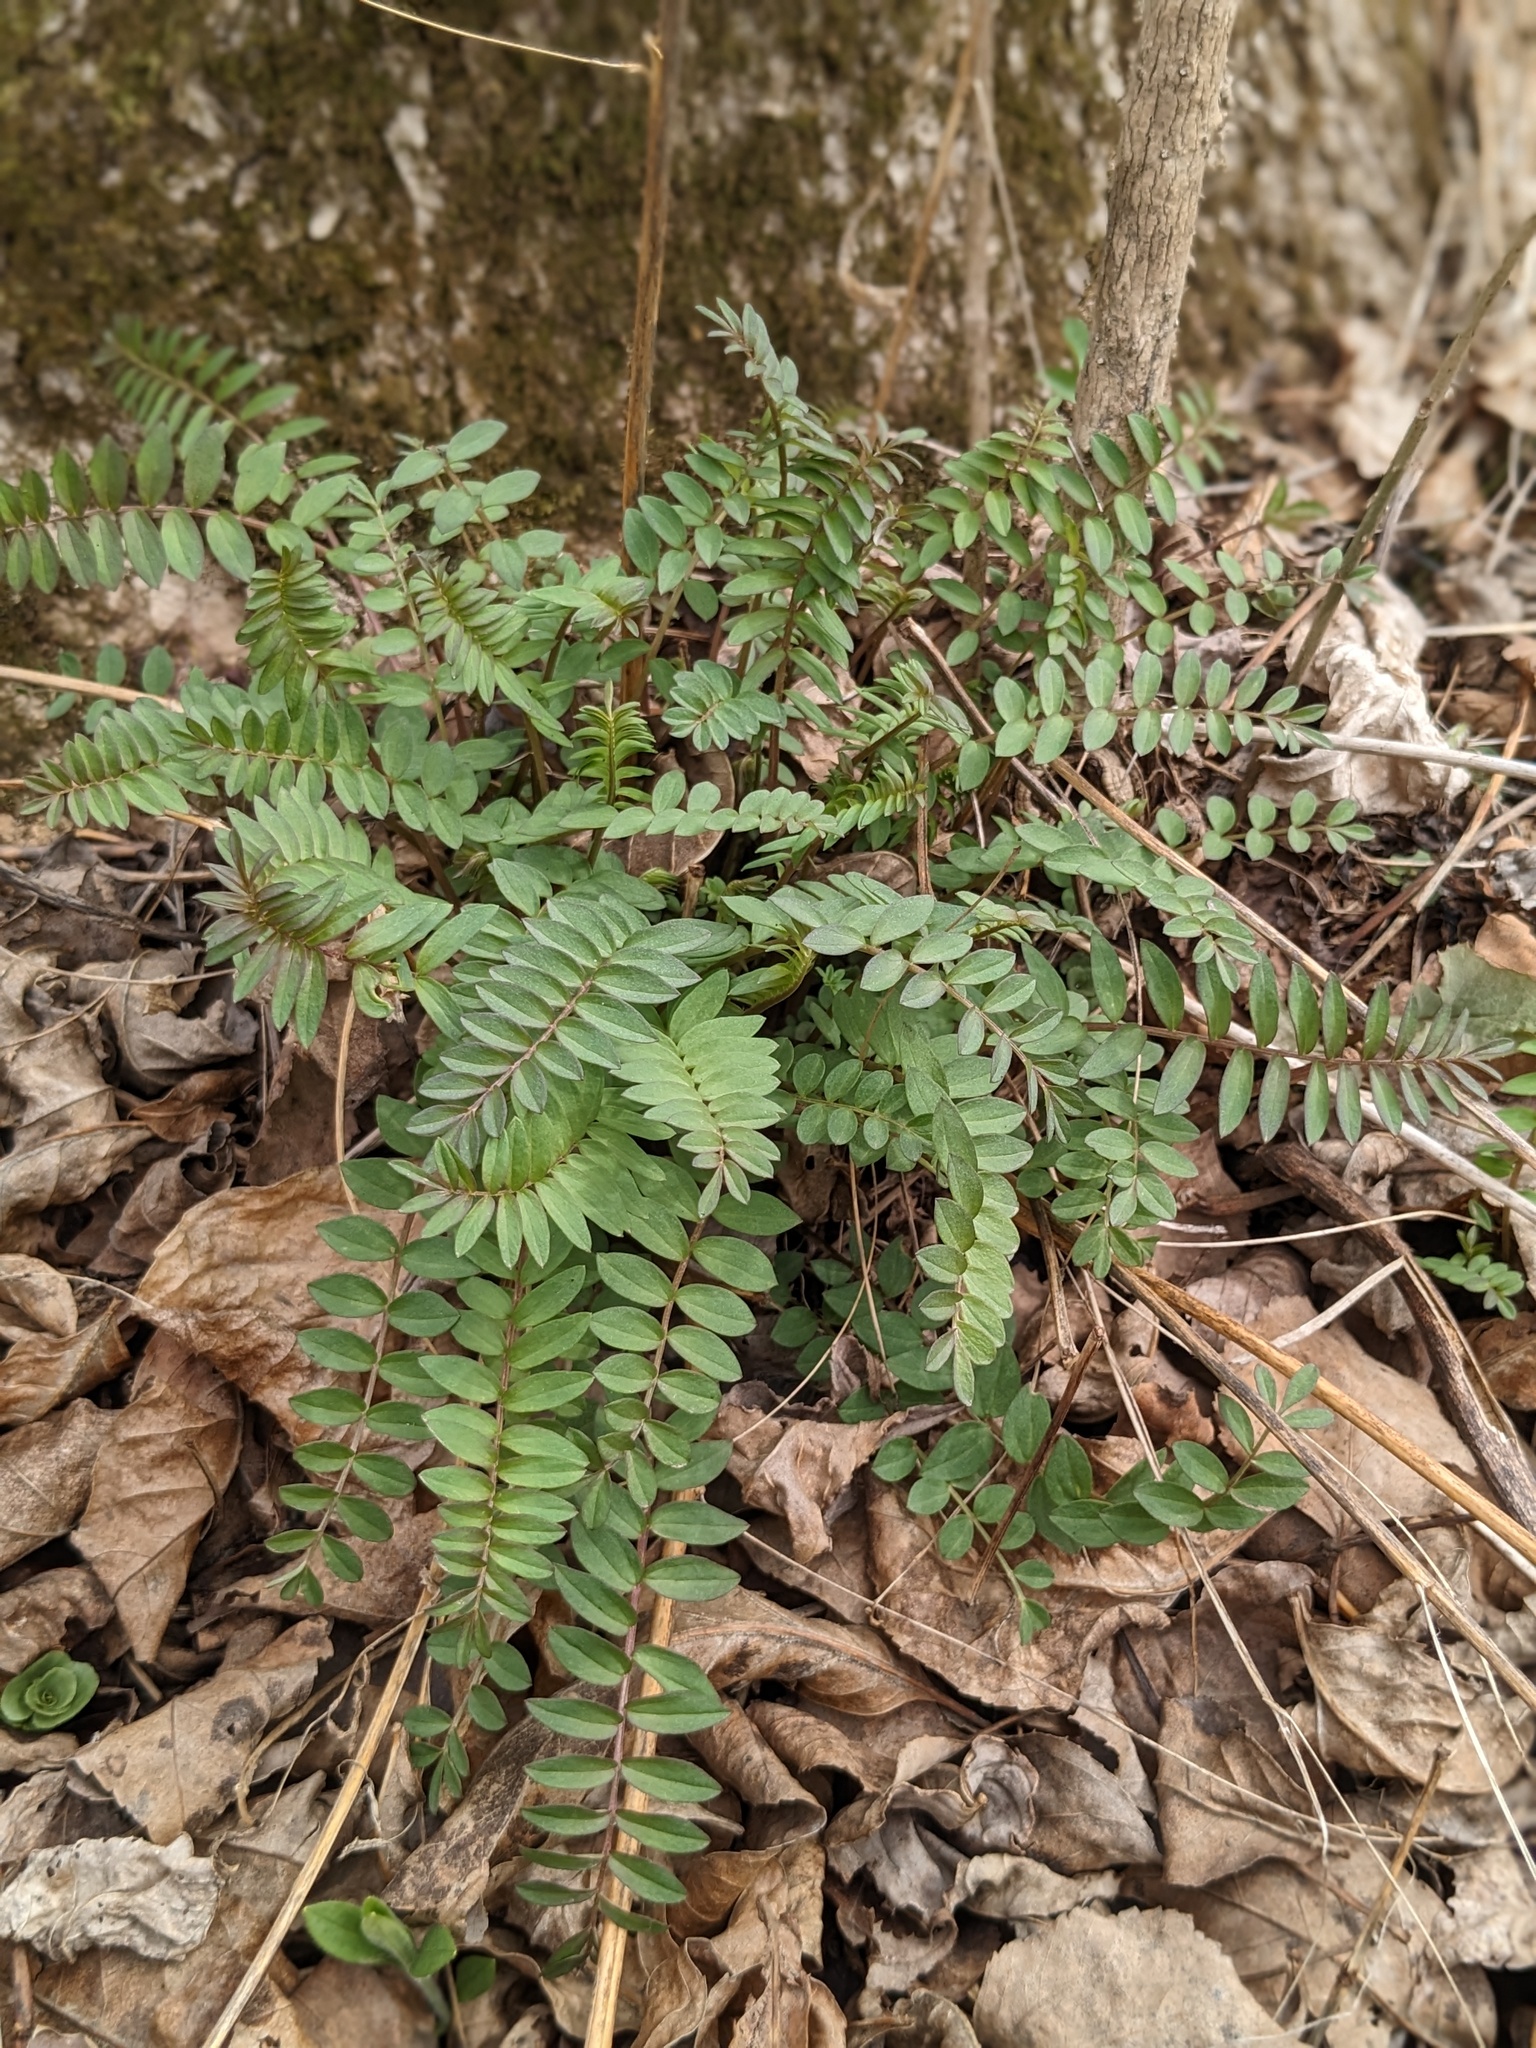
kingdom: Plantae
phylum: Tracheophyta
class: Magnoliopsida
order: Ericales
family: Polemoniaceae
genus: Polemonium
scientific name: Polemonium caeruleum
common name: Jacob's-ladder
